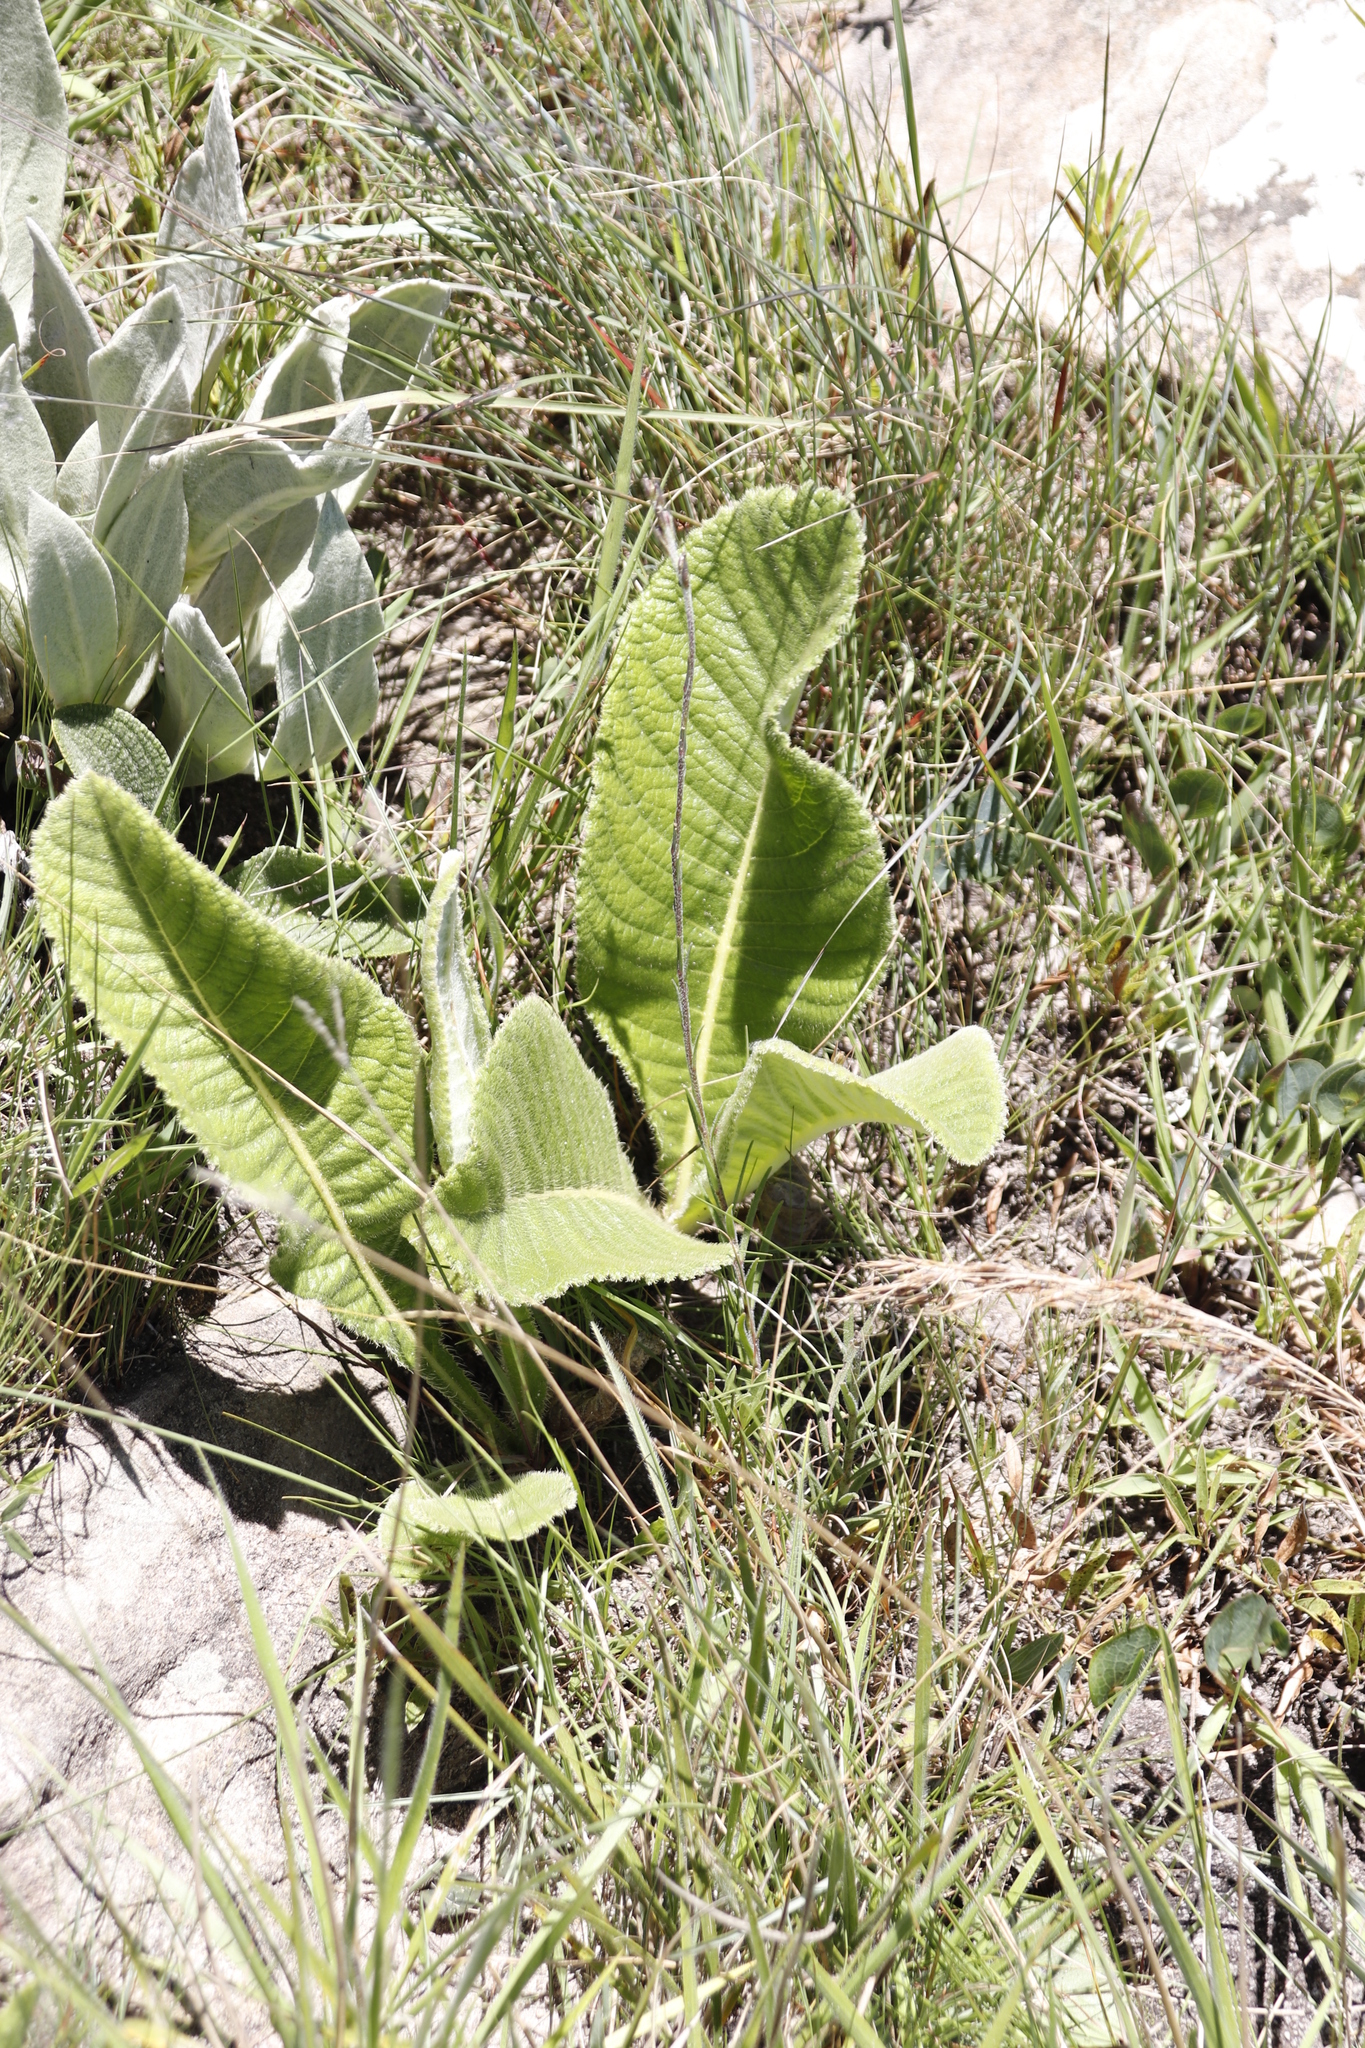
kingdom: Plantae
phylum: Tracheophyta
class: Magnoliopsida
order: Asterales
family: Asteraceae
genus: Berkheya
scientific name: Berkheya setifera
